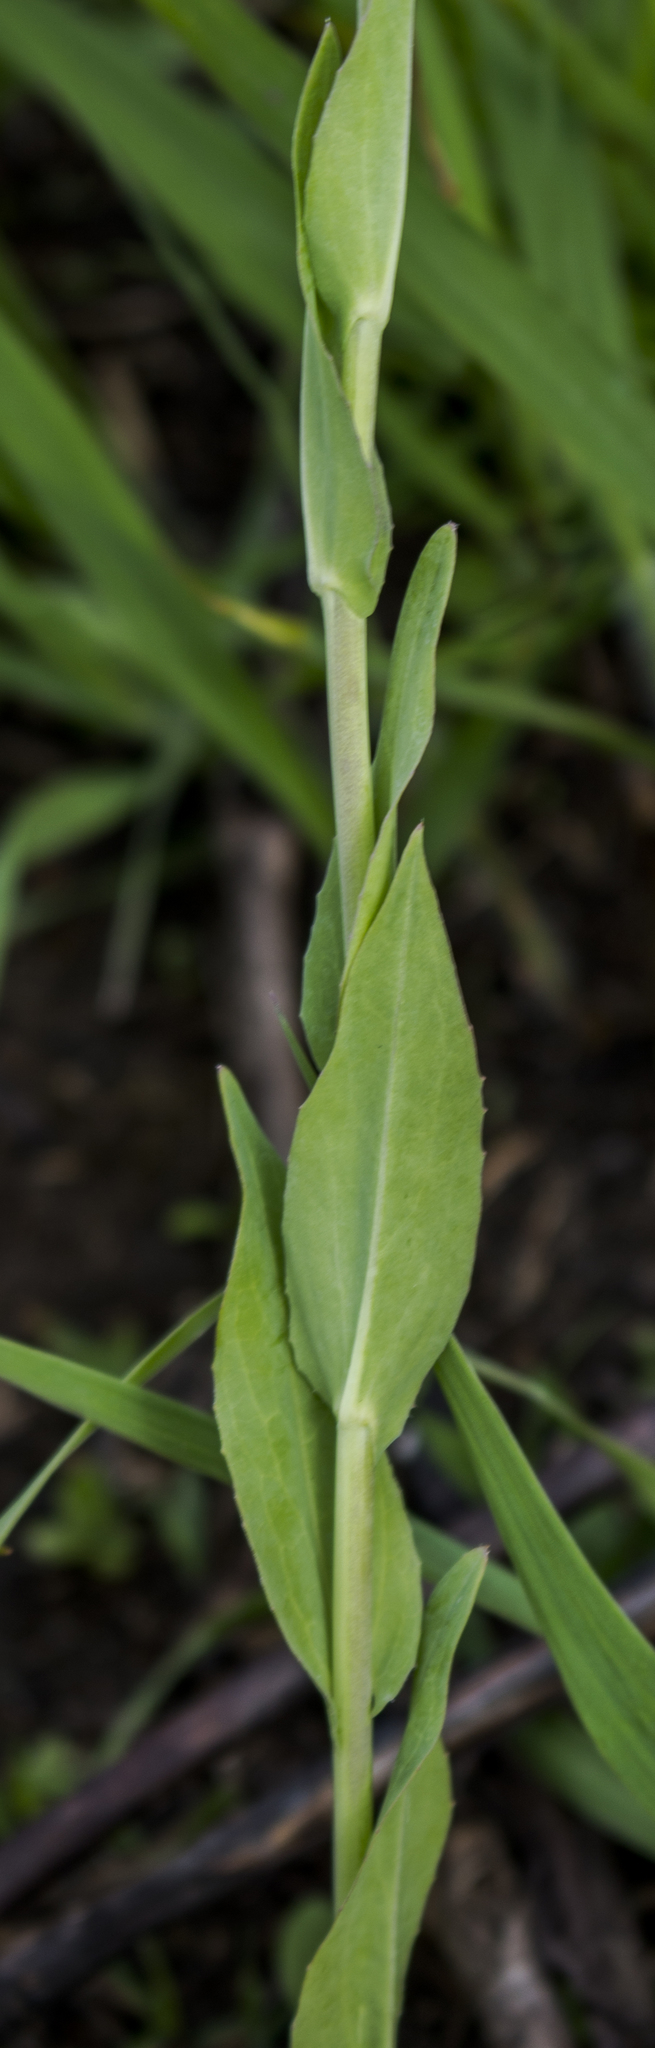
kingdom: Plantae
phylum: Tracheophyta
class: Magnoliopsida
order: Brassicales
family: Brassicaceae
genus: Turritis
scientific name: Turritis glabra
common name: Tower rockcress
